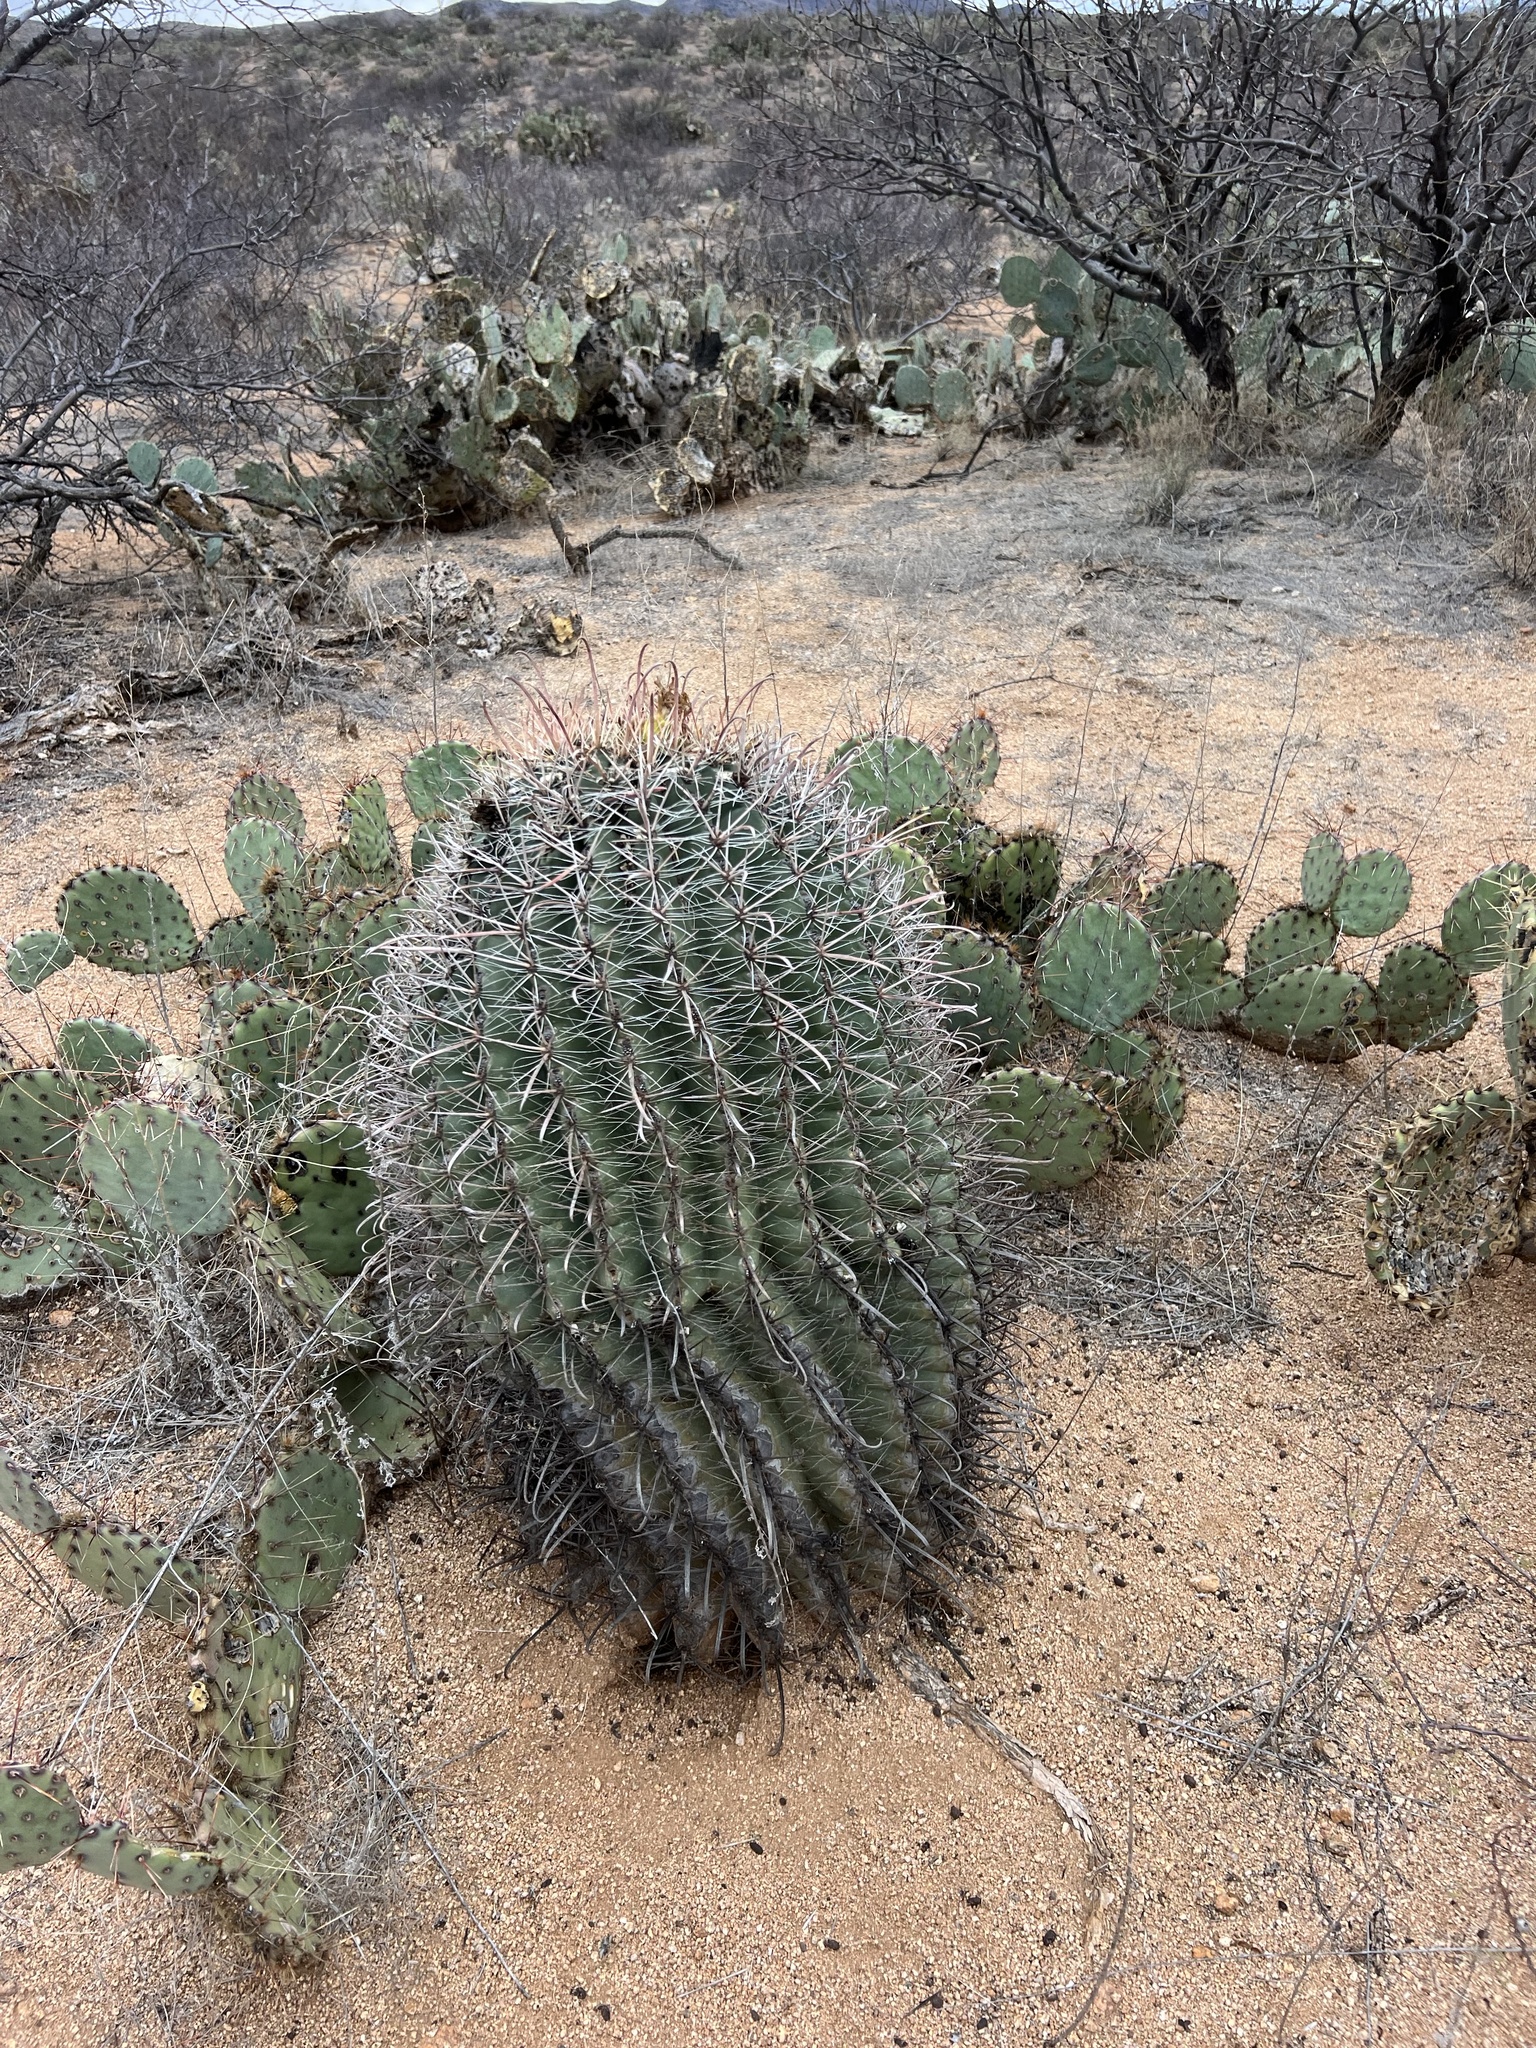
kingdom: Plantae
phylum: Tracheophyta
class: Magnoliopsida
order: Caryophyllales
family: Cactaceae
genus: Ferocactus
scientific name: Ferocactus wislizeni
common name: Candy barrel cactus
